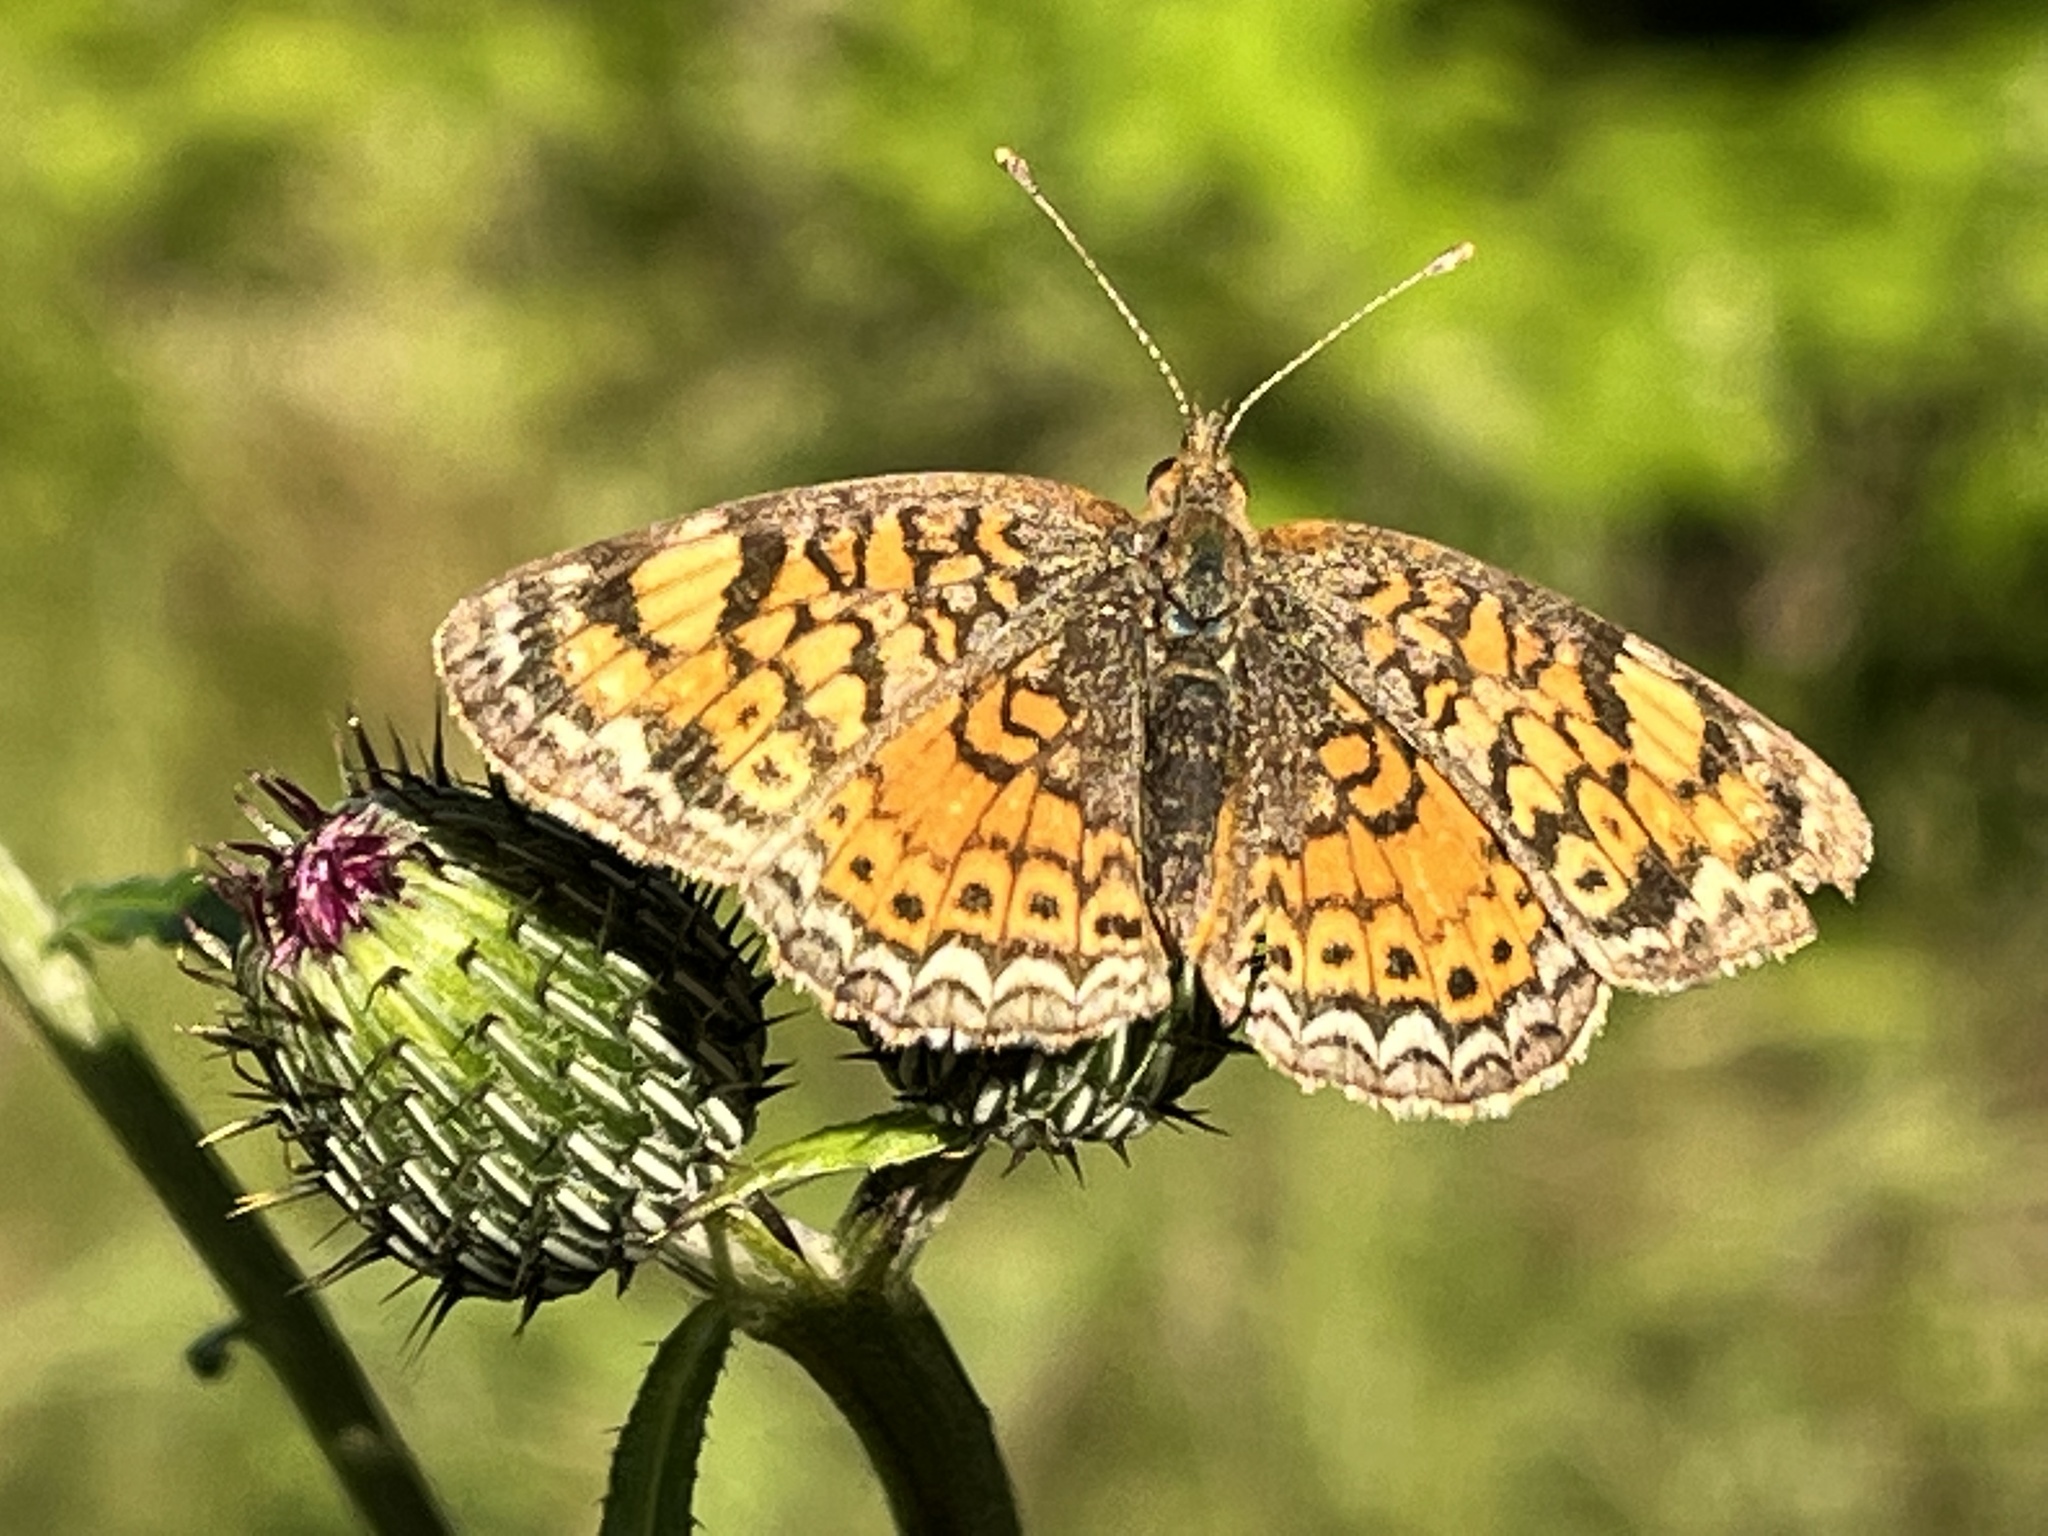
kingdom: Animalia
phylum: Arthropoda
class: Insecta
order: Lepidoptera
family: Nymphalidae
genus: Phyciodes
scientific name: Phyciodes tharos
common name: Pearl crescent
